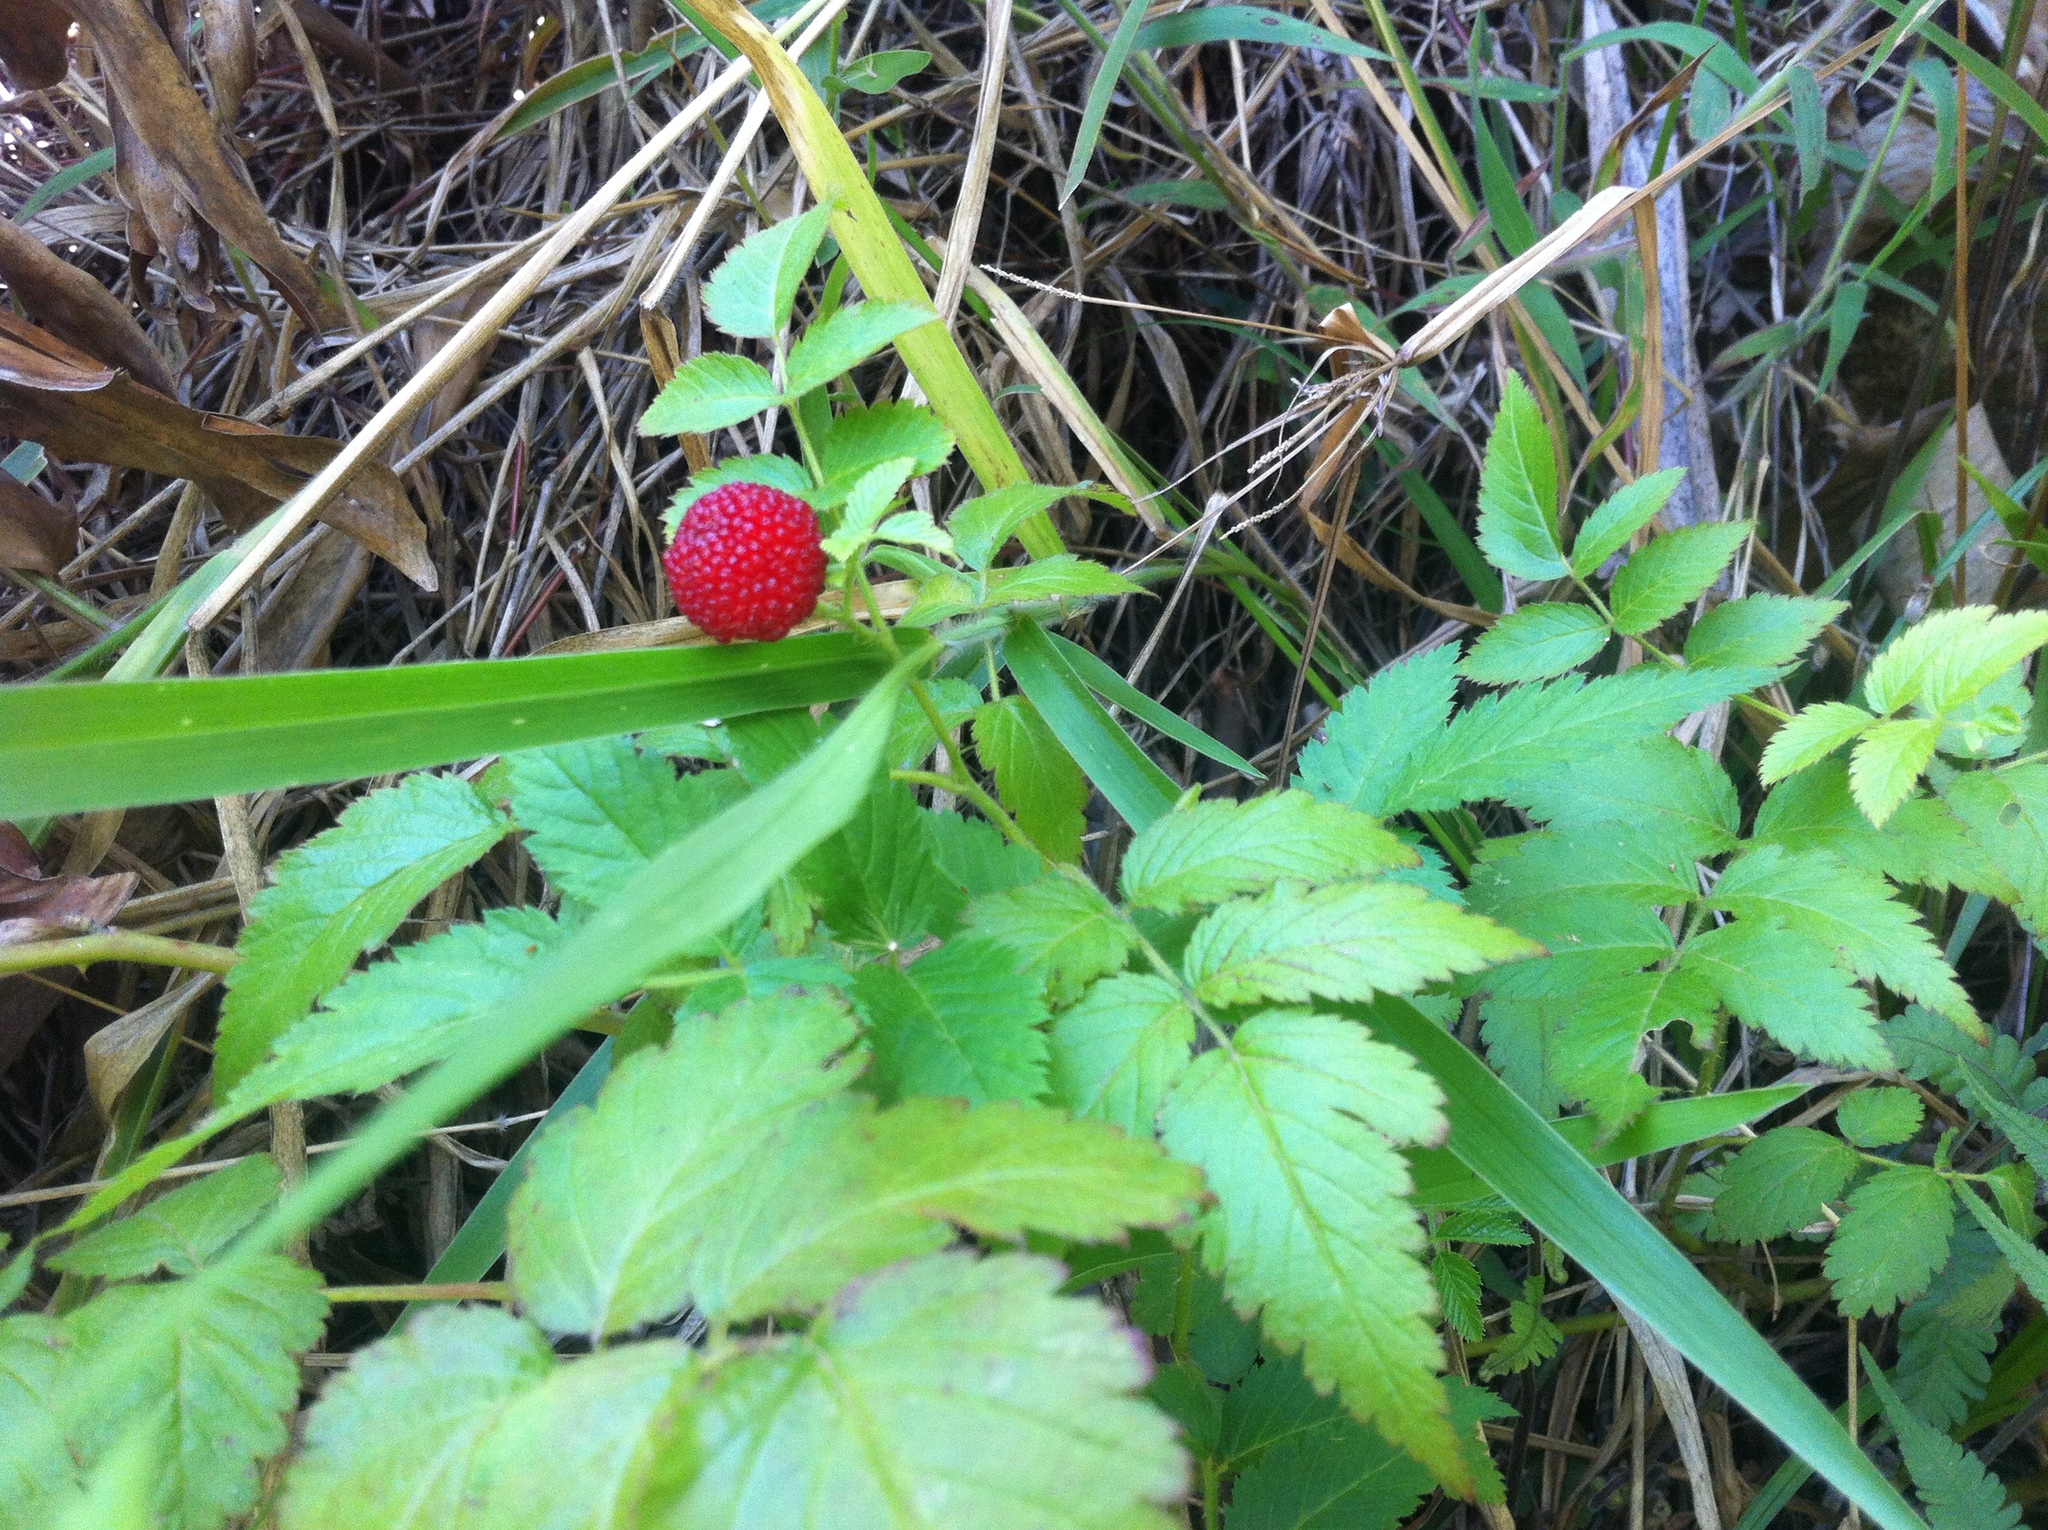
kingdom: Plantae
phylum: Tracheophyta
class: Magnoliopsida
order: Rosales
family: Rosaceae
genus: Rubus
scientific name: Rubus rosifolius
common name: Roseleaf raspberry
